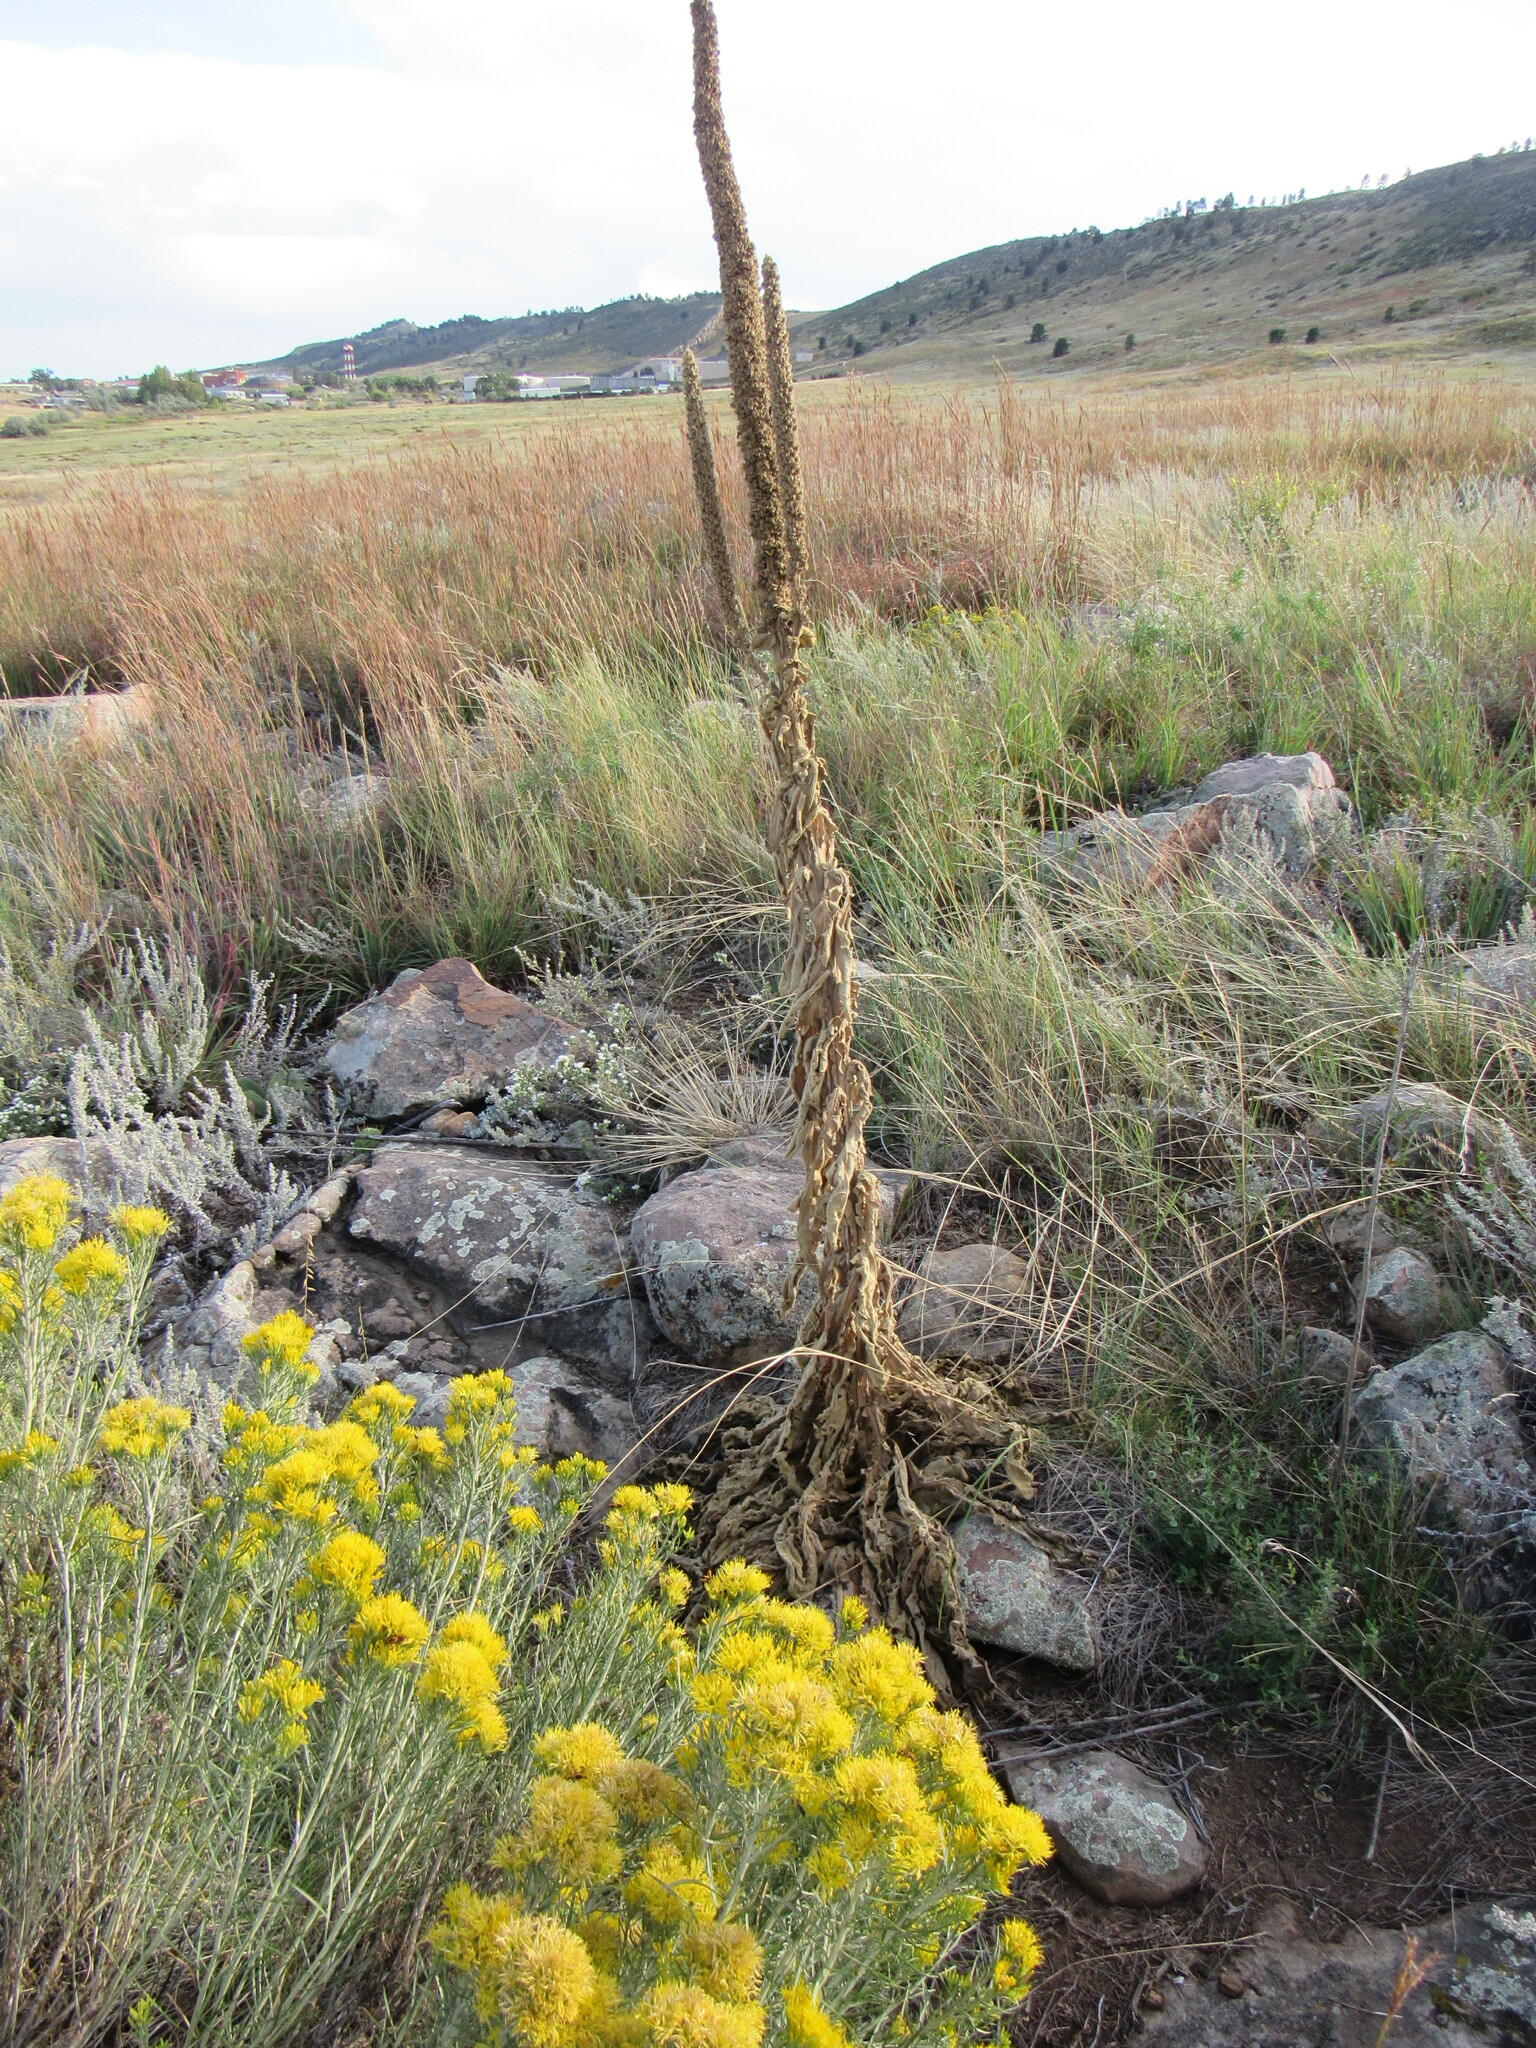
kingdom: Plantae
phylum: Tracheophyta
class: Magnoliopsida
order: Lamiales
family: Scrophulariaceae
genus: Verbascum
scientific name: Verbascum thapsus
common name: Common mullein
